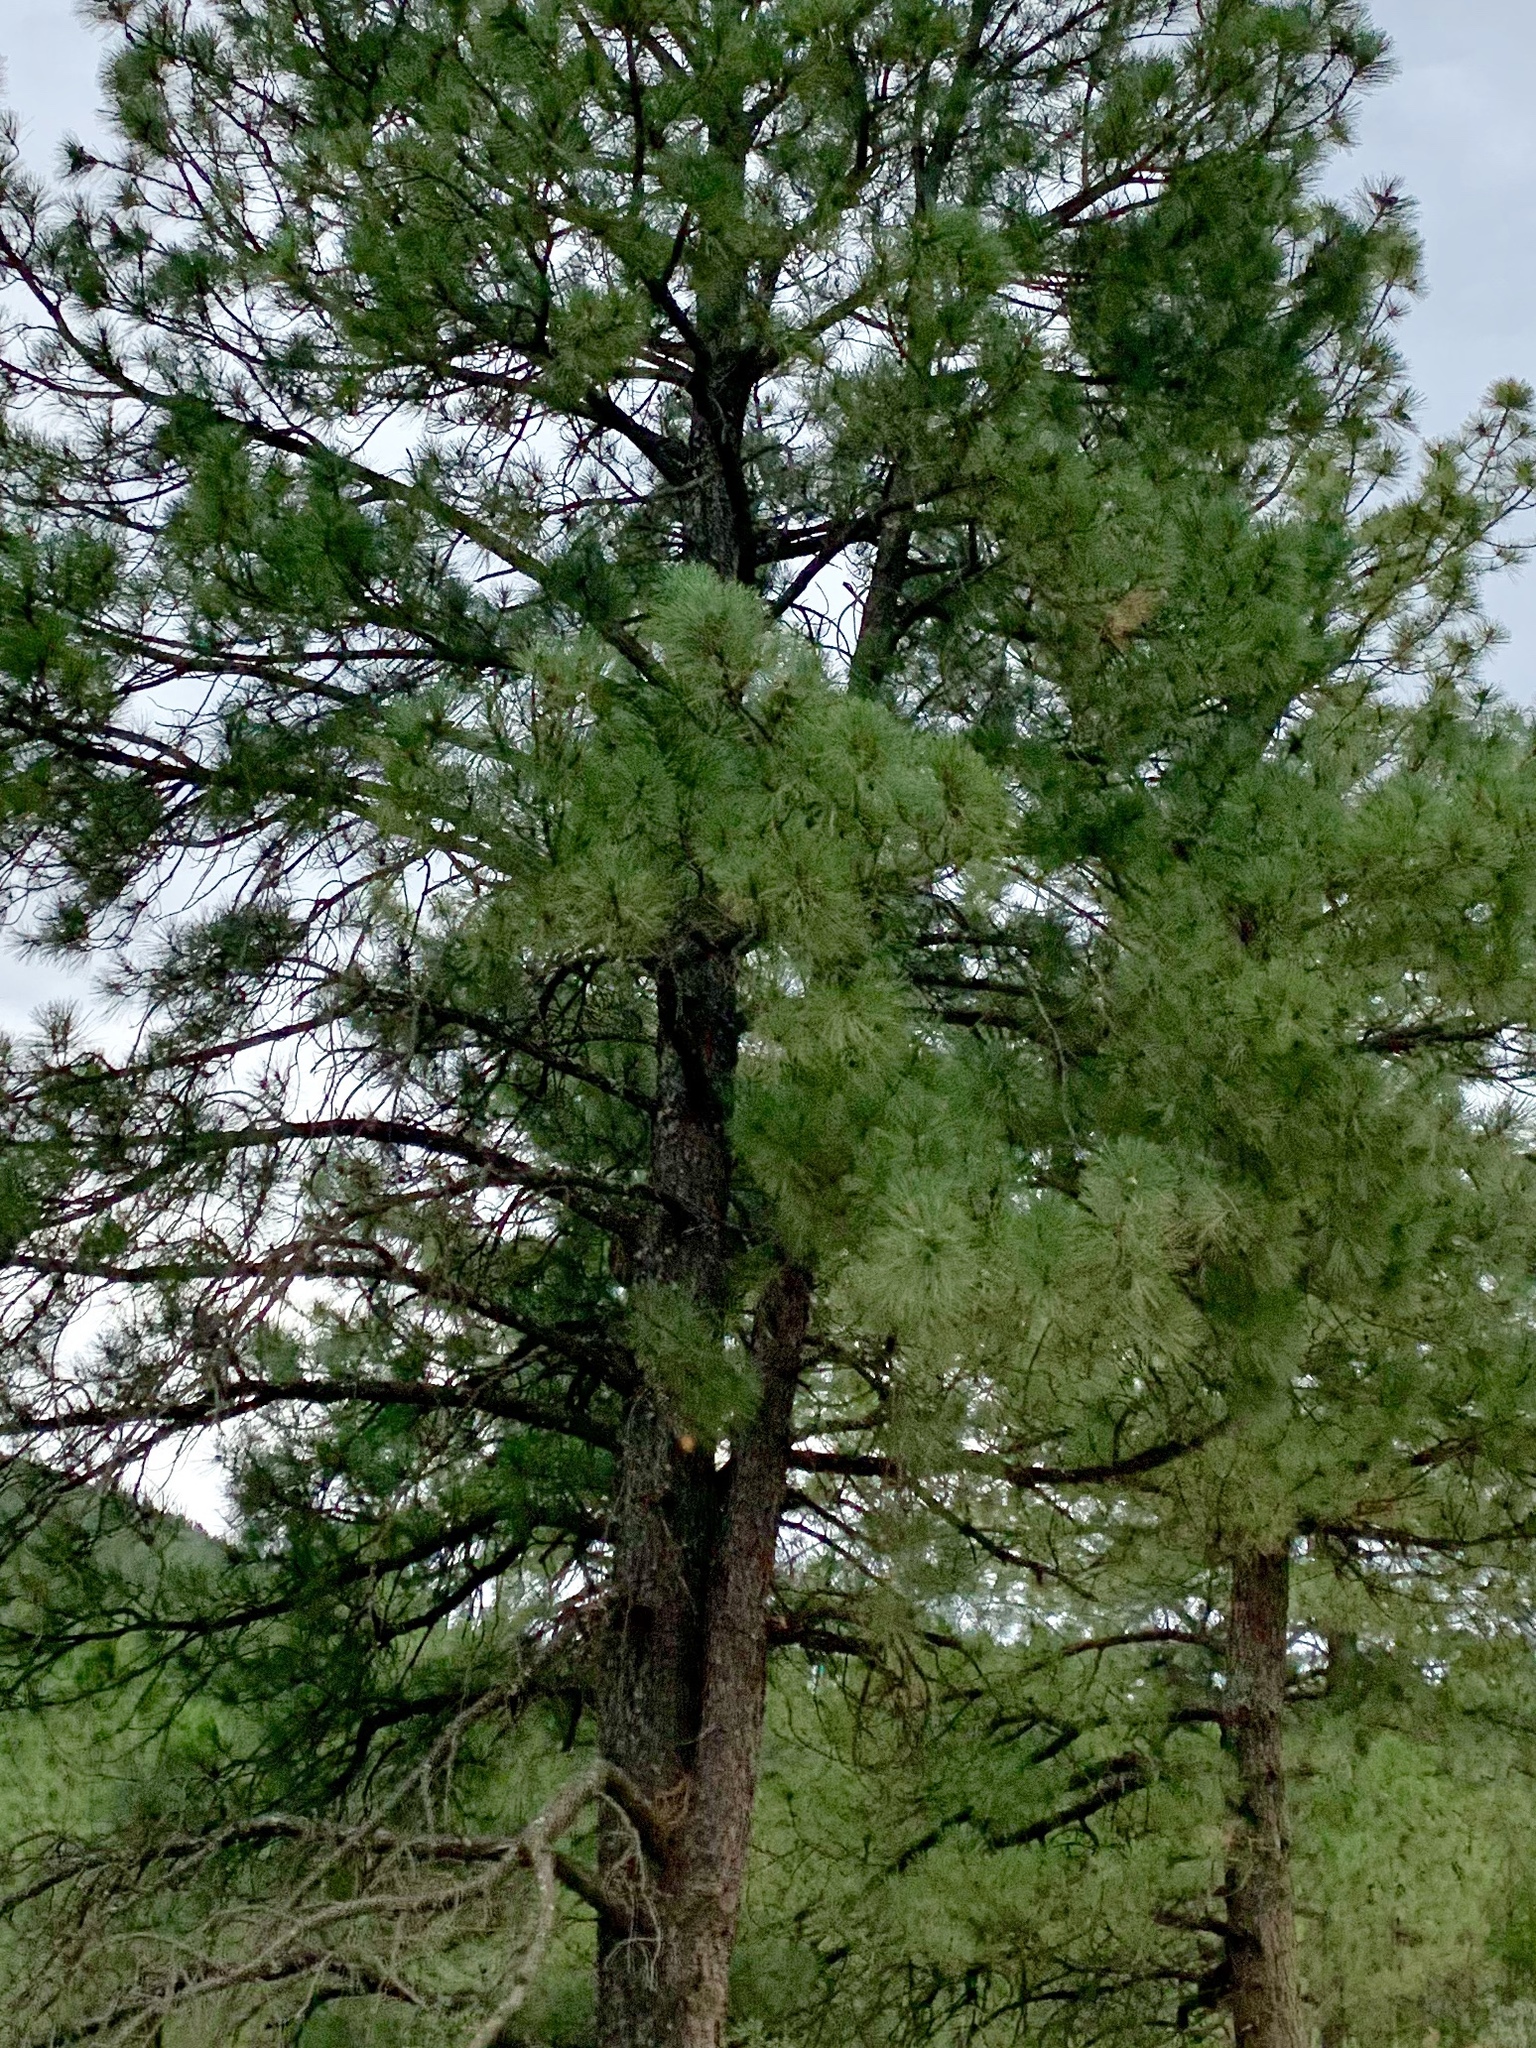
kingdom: Plantae
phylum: Tracheophyta
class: Pinopsida
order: Pinales
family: Pinaceae
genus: Pinus
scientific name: Pinus ponderosa
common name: Western yellow-pine
